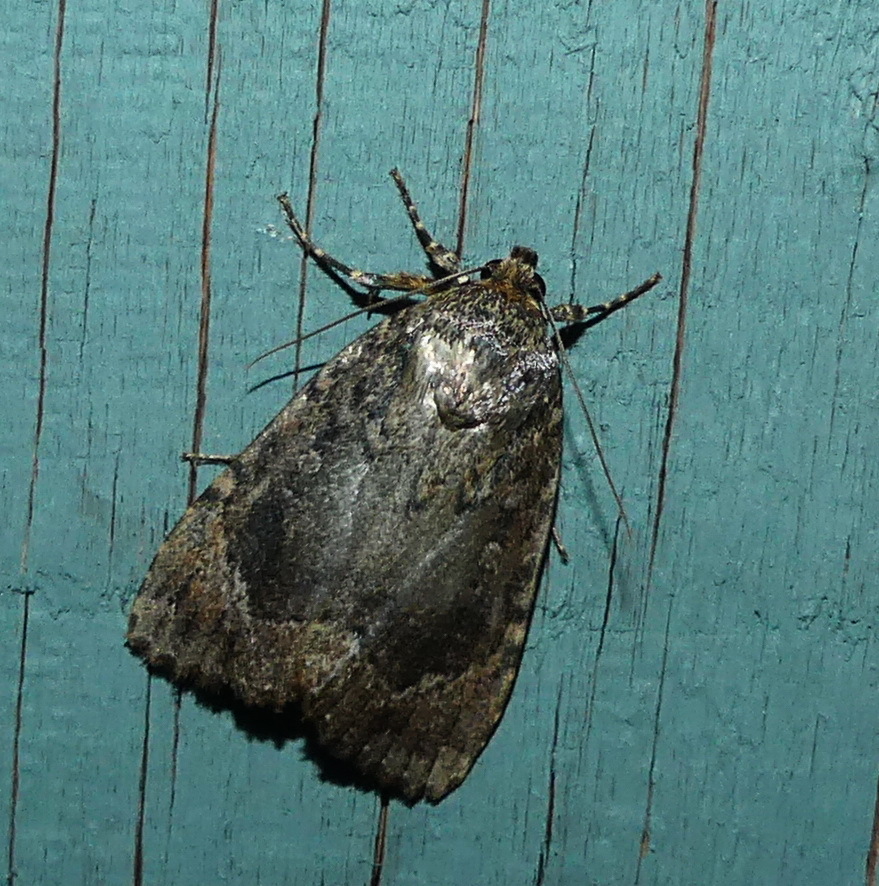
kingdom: Animalia
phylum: Arthropoda
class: Insecta
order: Lepidoptera
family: Noctuidae
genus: Amphipyra
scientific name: Amphipyra pyramidoides
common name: American copper underwing
